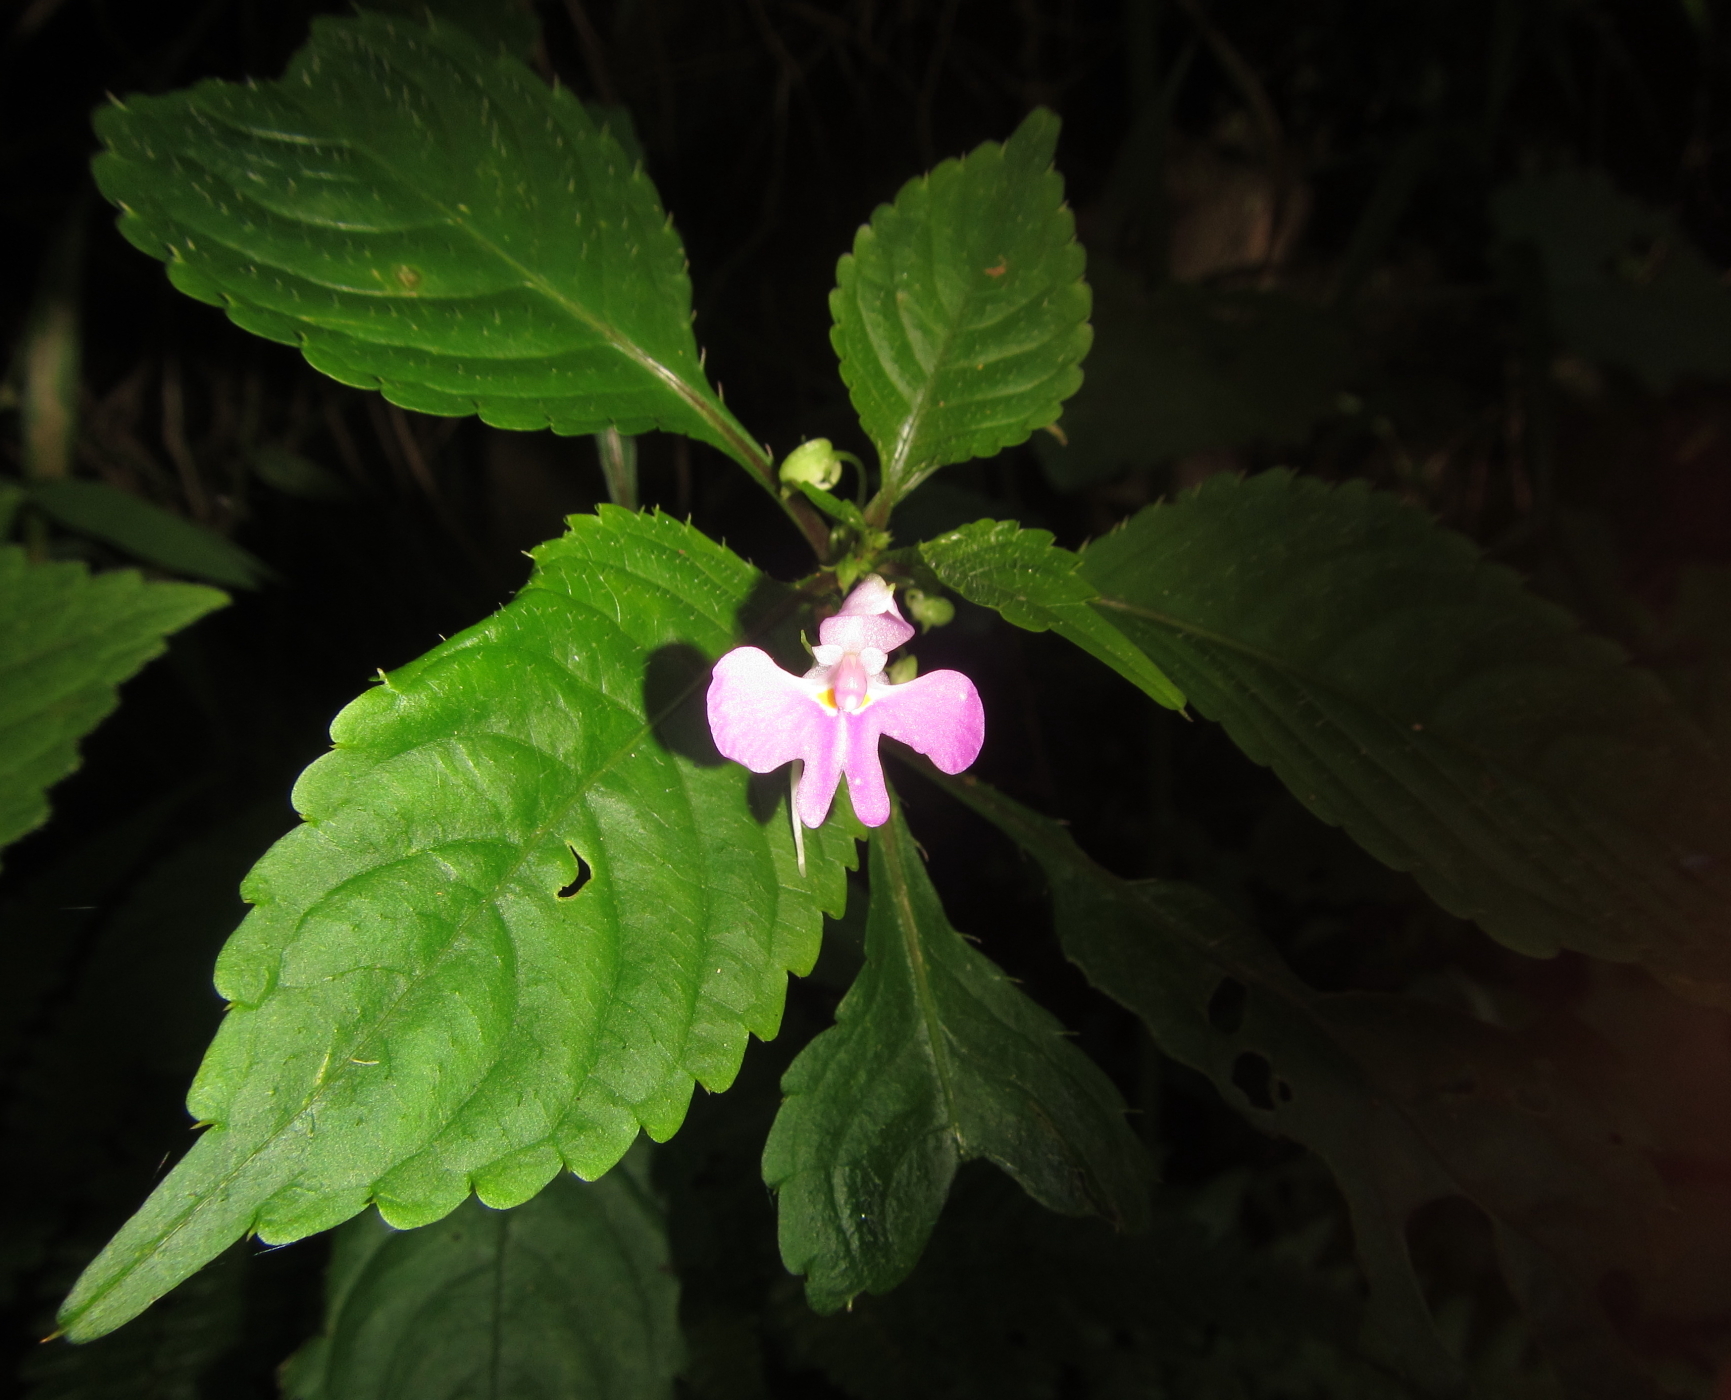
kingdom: Plantae
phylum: Tracheophyta
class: Magnoliopsida
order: Ericales
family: Balsaminaceae
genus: Impatiens
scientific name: Impatiens hochstetteri
